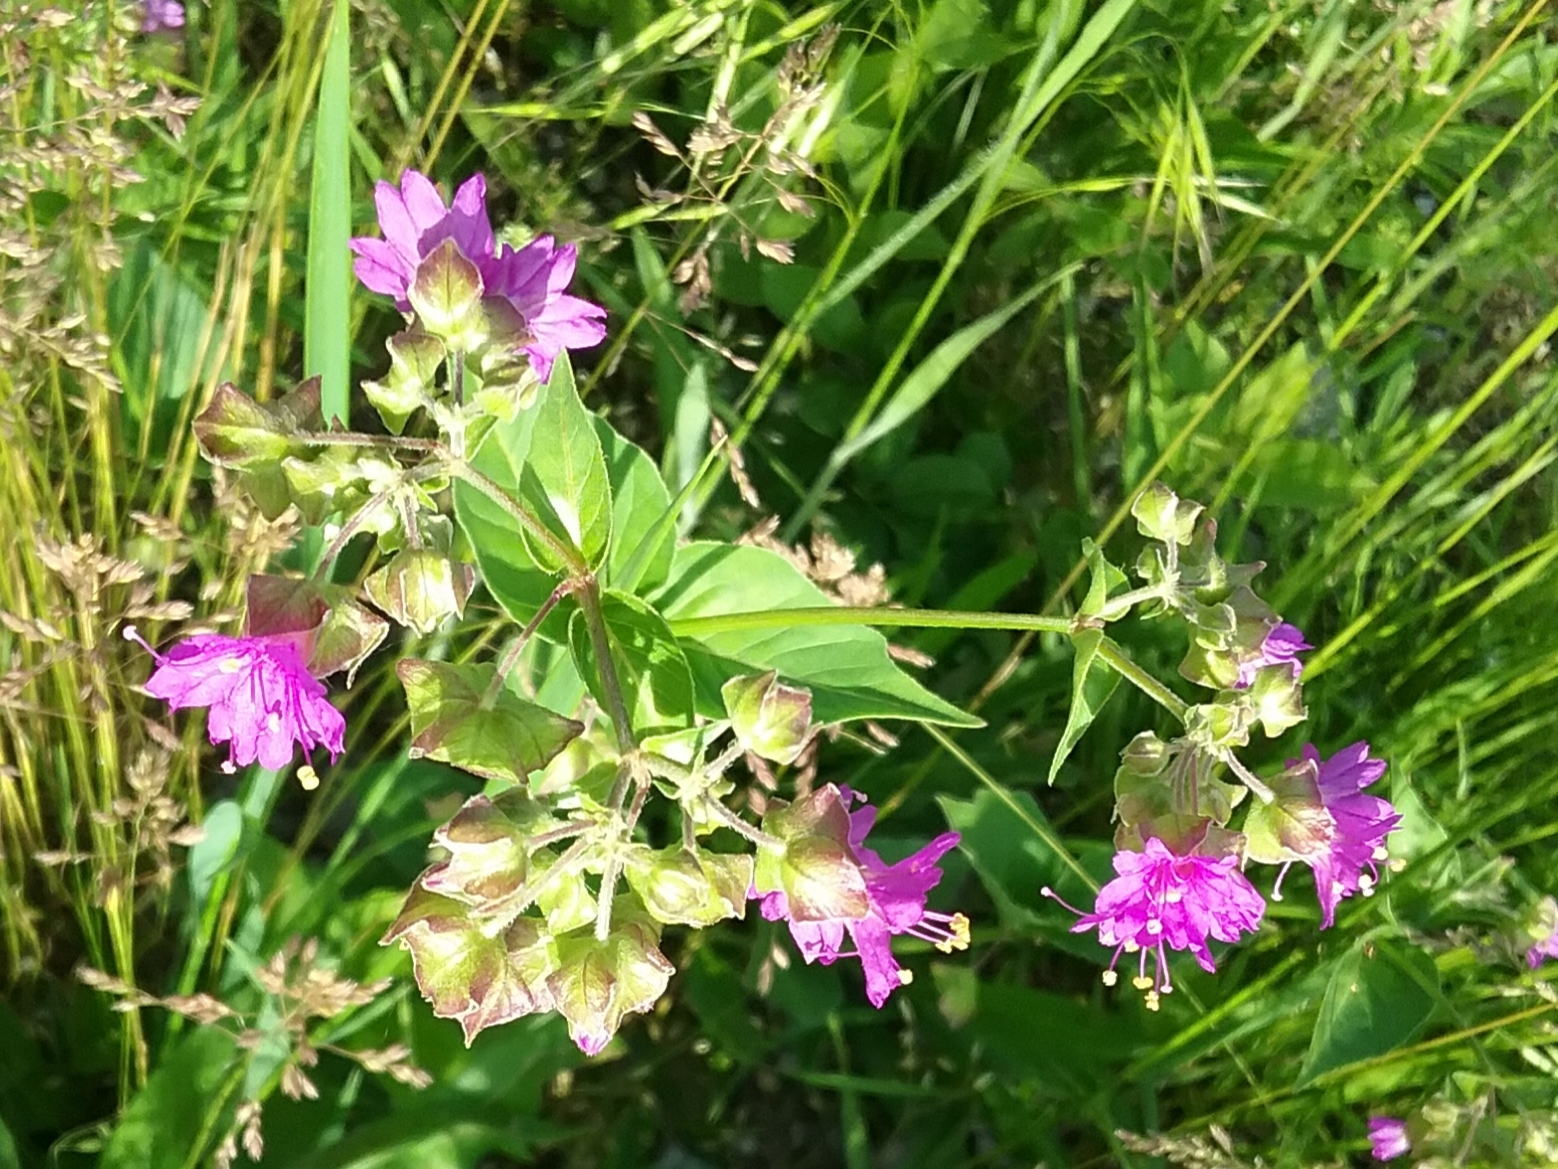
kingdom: Plantae
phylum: Tracheophyta
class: Magnoliopsida
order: Caryophyllales
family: Nyctaginaceae
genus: Mirabilis
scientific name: Mirabilis nyctaginea
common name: Umbrella wort
